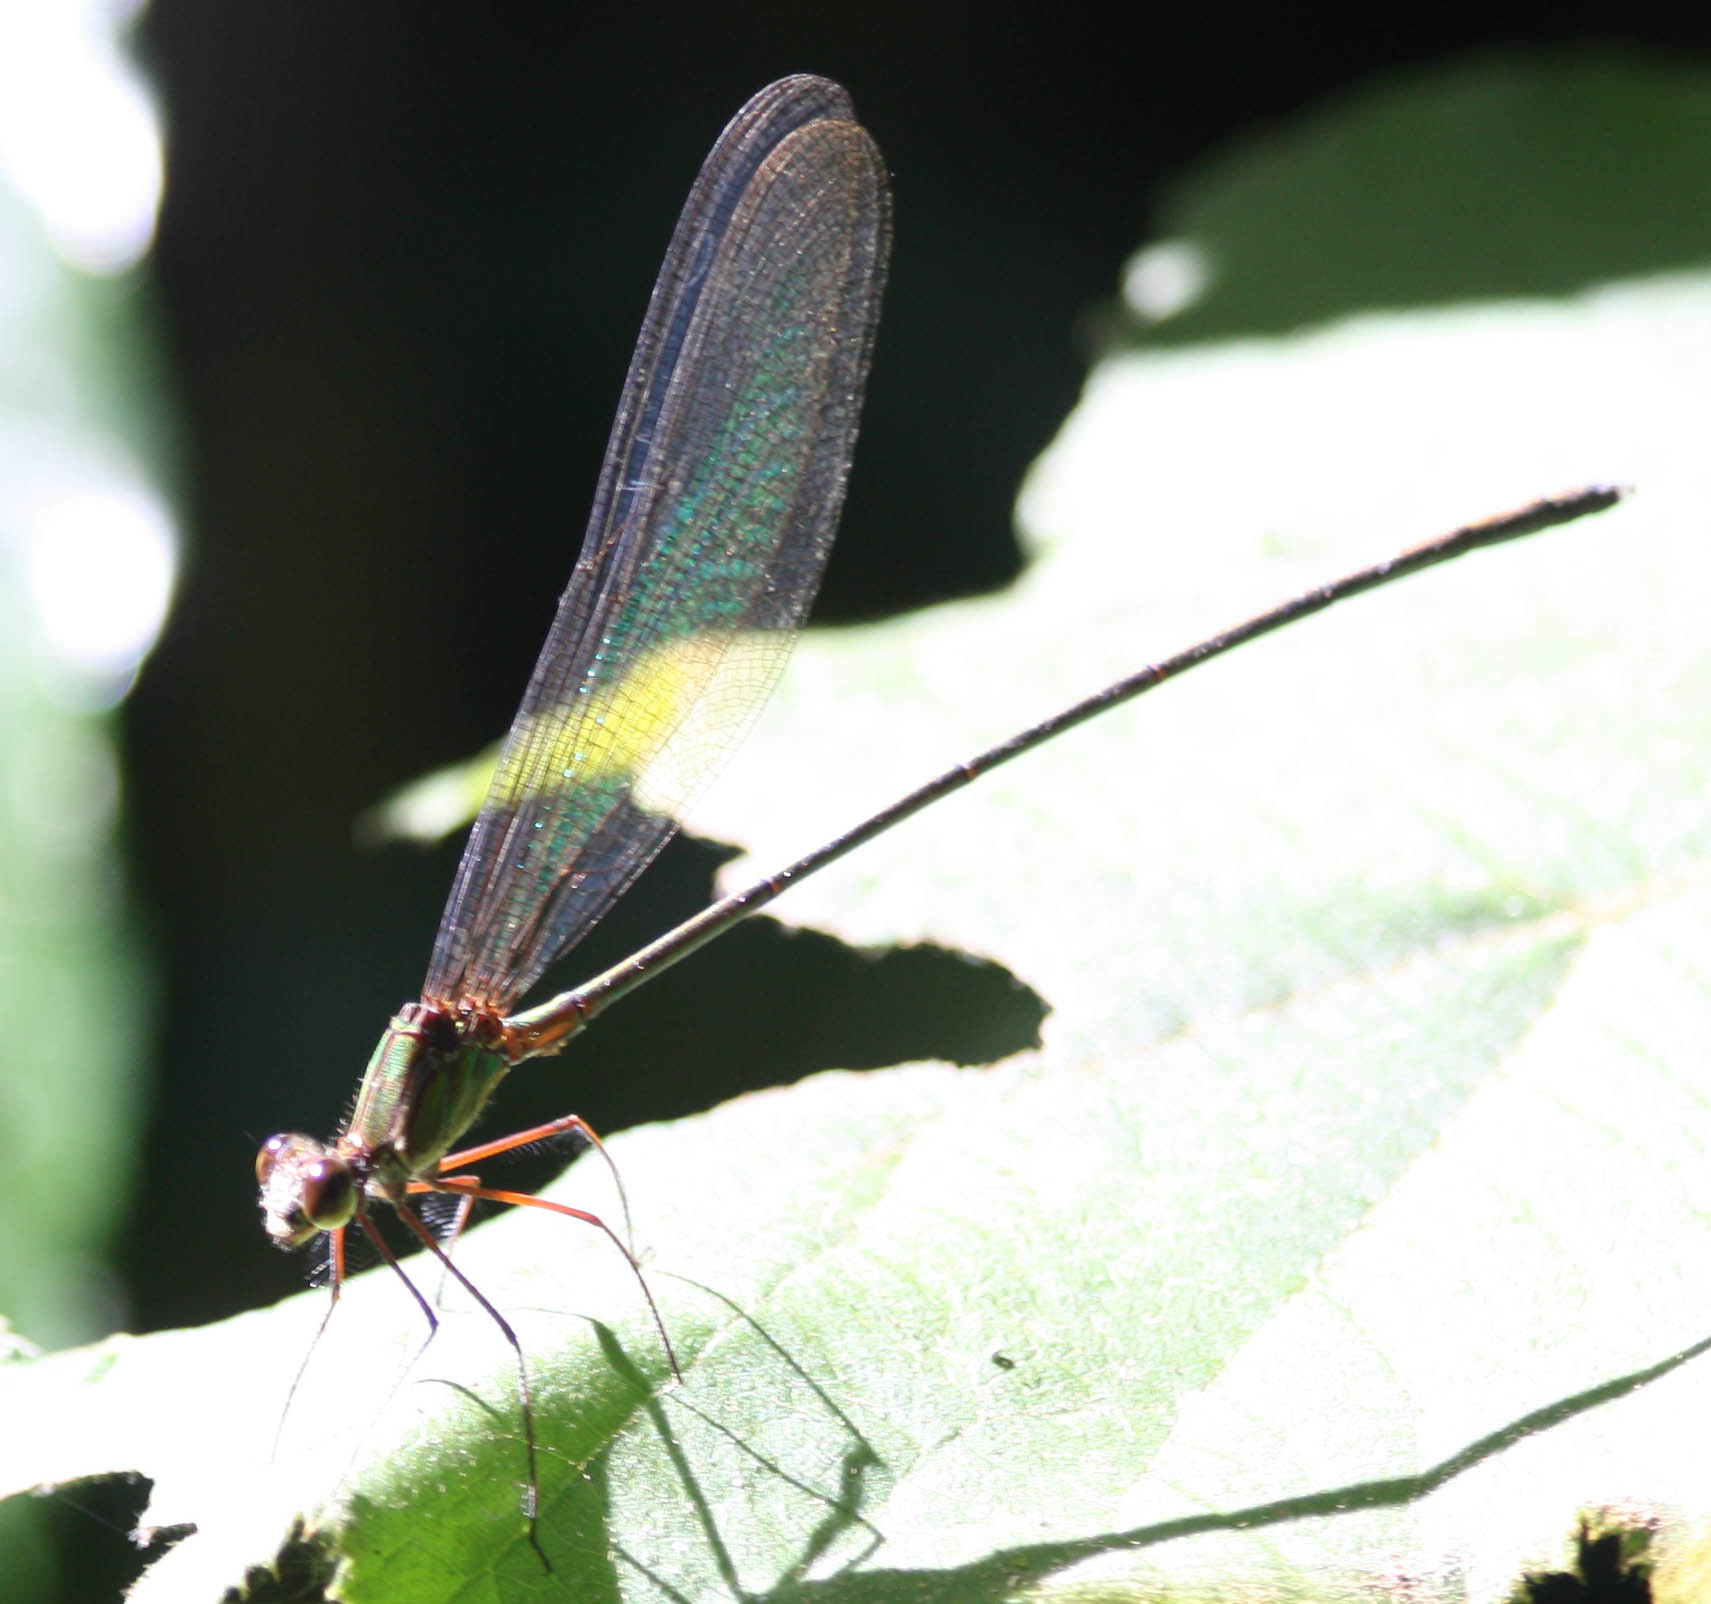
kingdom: Animalia
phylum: Arthropoda
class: Insecta
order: Odonata
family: Calopterygidae
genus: Phaon
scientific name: Phaon rasoherinae
